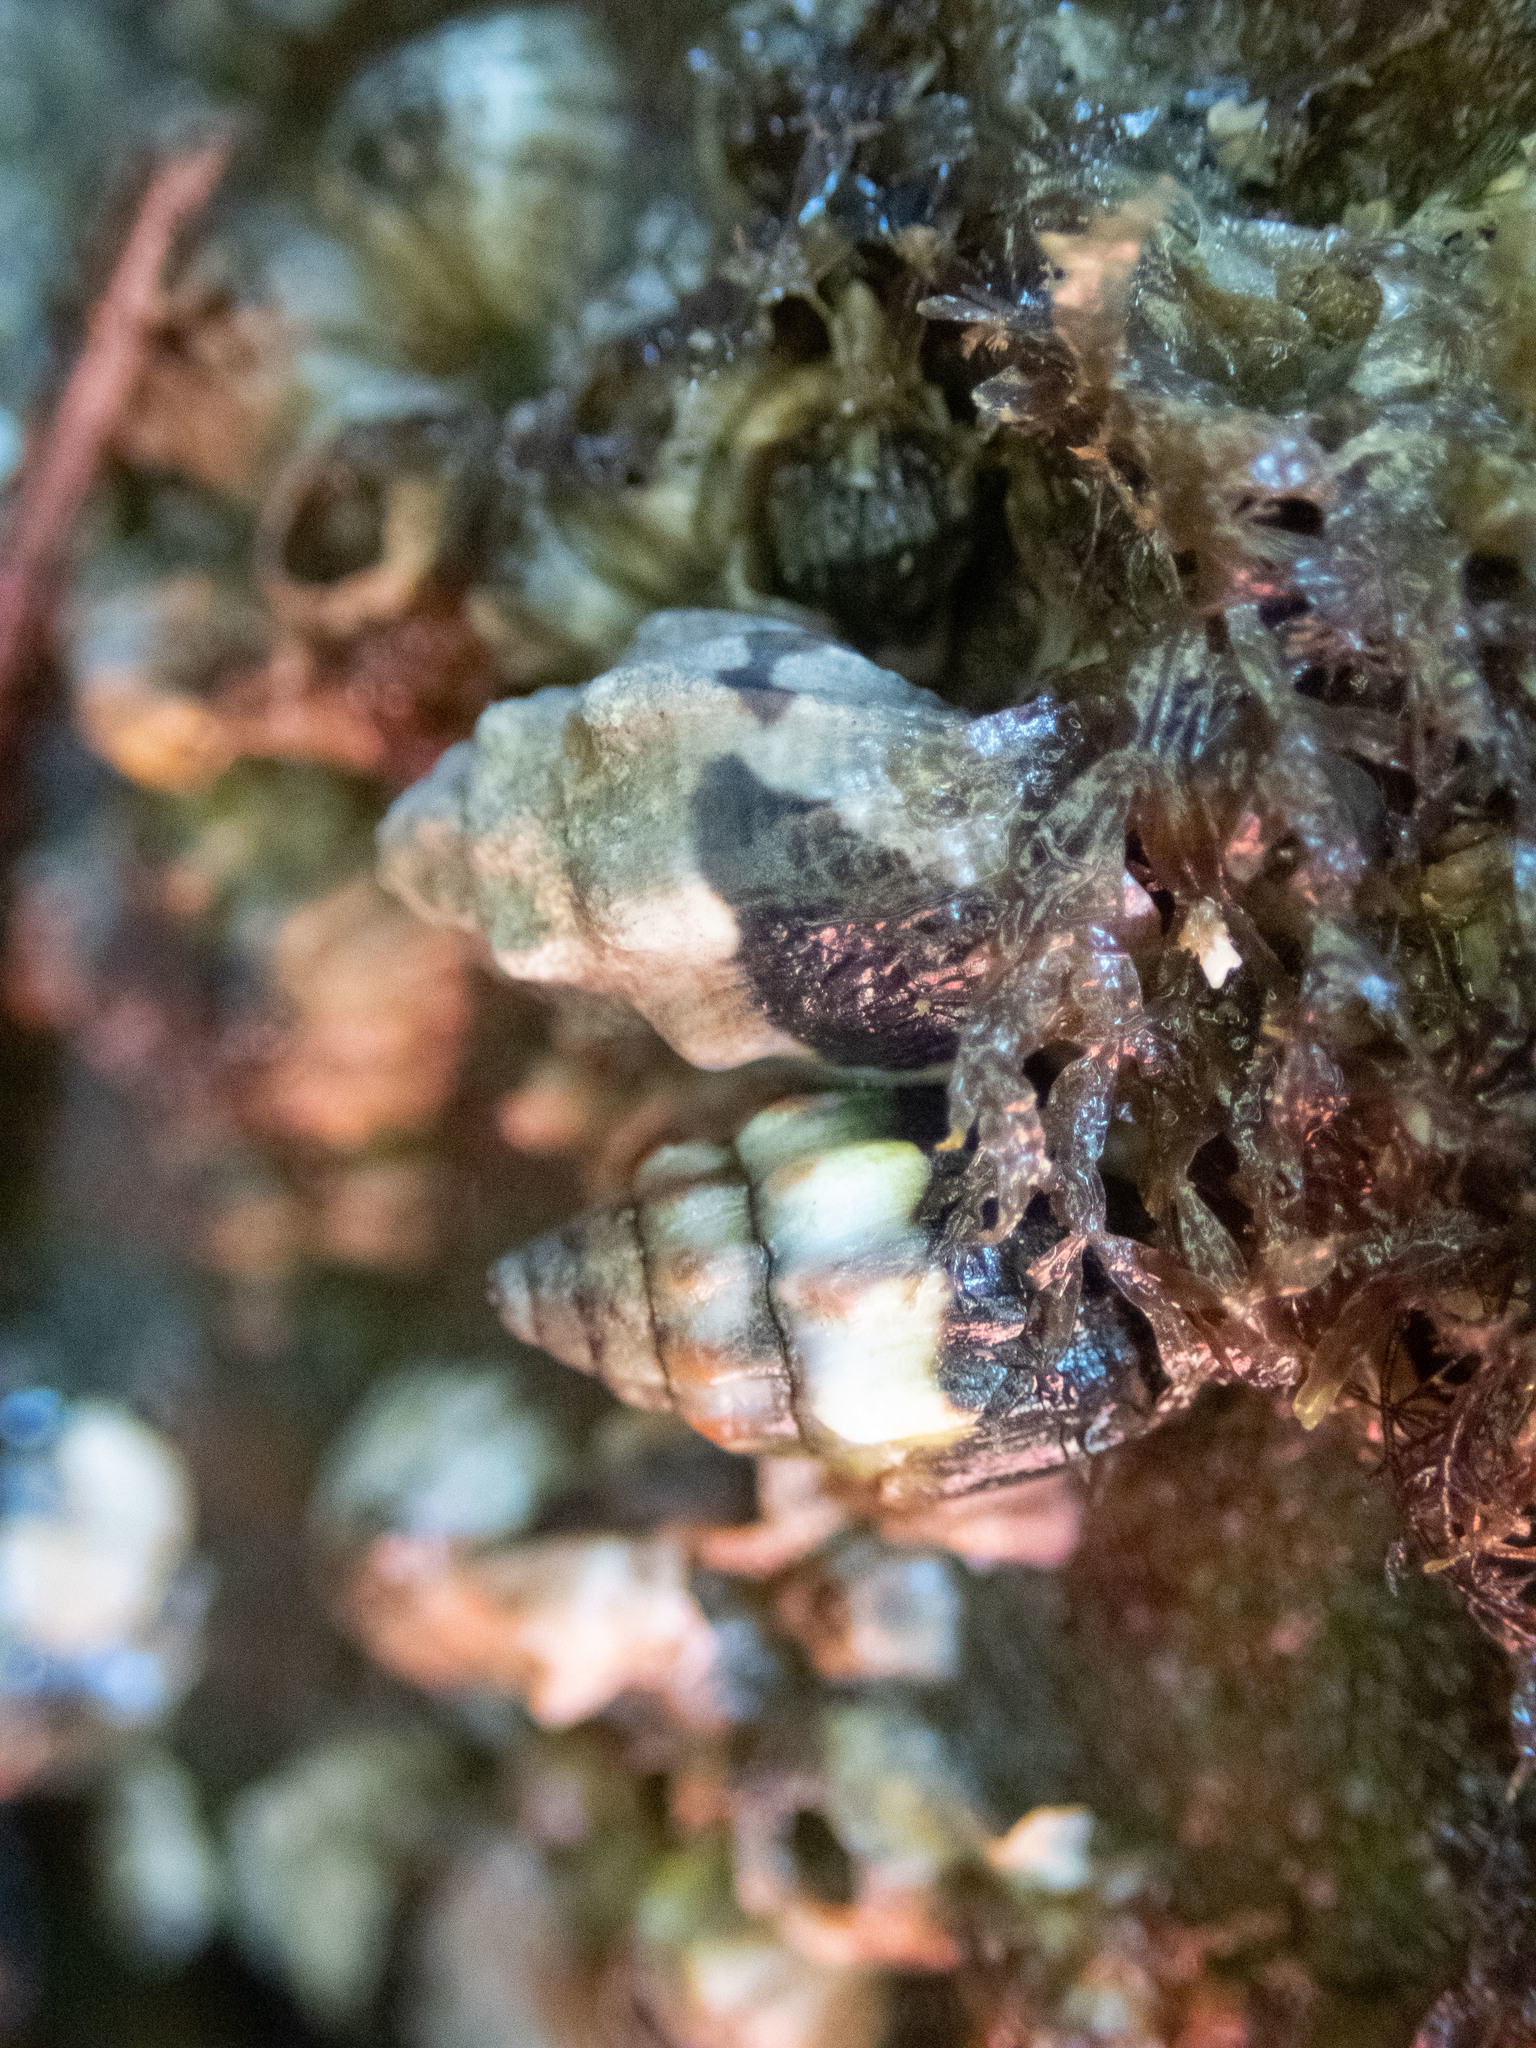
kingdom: Animalia
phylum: Mollusca
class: Gastropoda
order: Neogastropoda
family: Columbellidae
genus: Anachis
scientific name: Anachis rugosa
